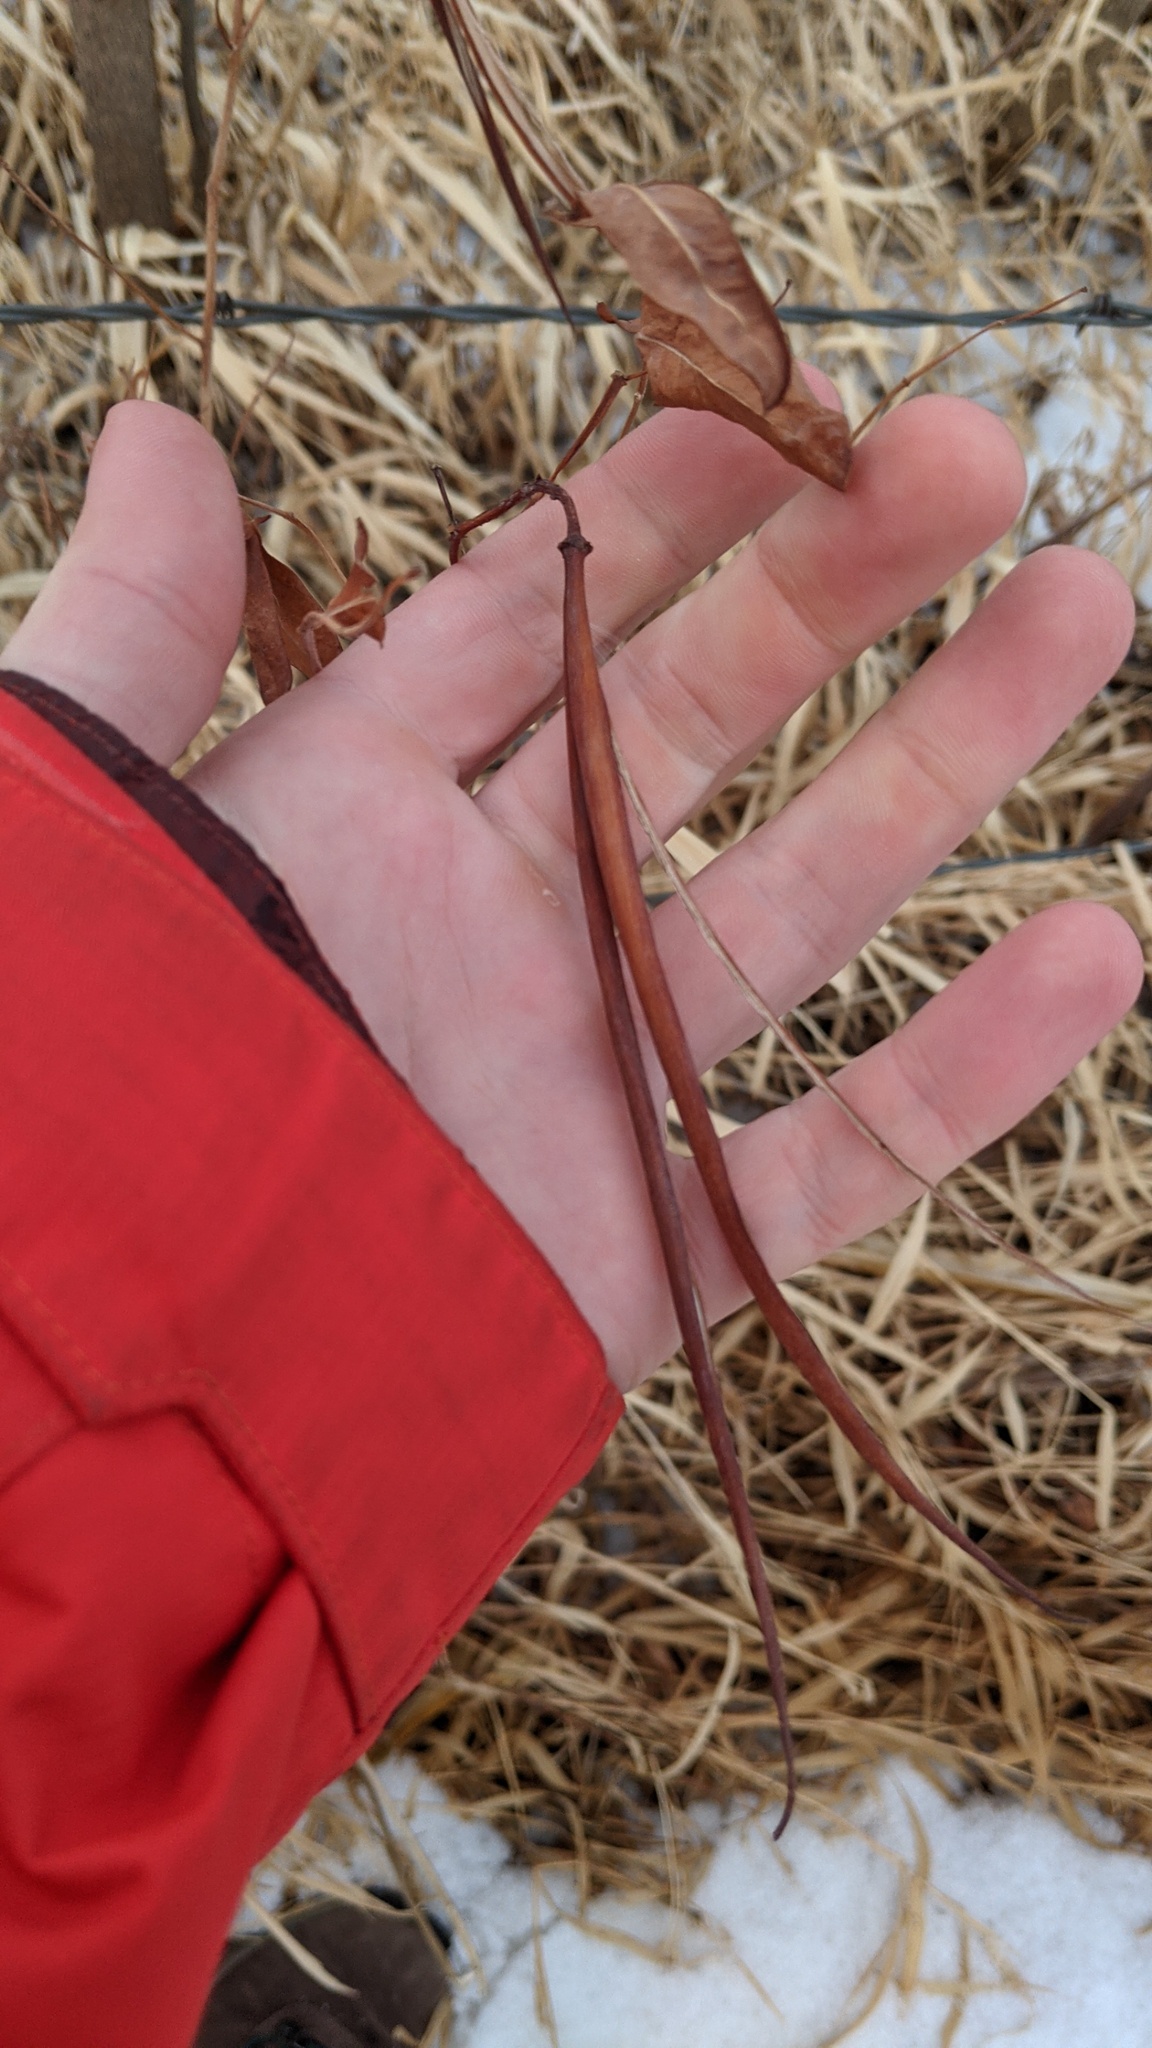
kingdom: Plantae
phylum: Tracheophyta
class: Magnoliopsida
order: Gentianales
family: Apocynaceae
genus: Apocynum
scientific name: Apocynum cannabinum
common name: Hemp dogbane
